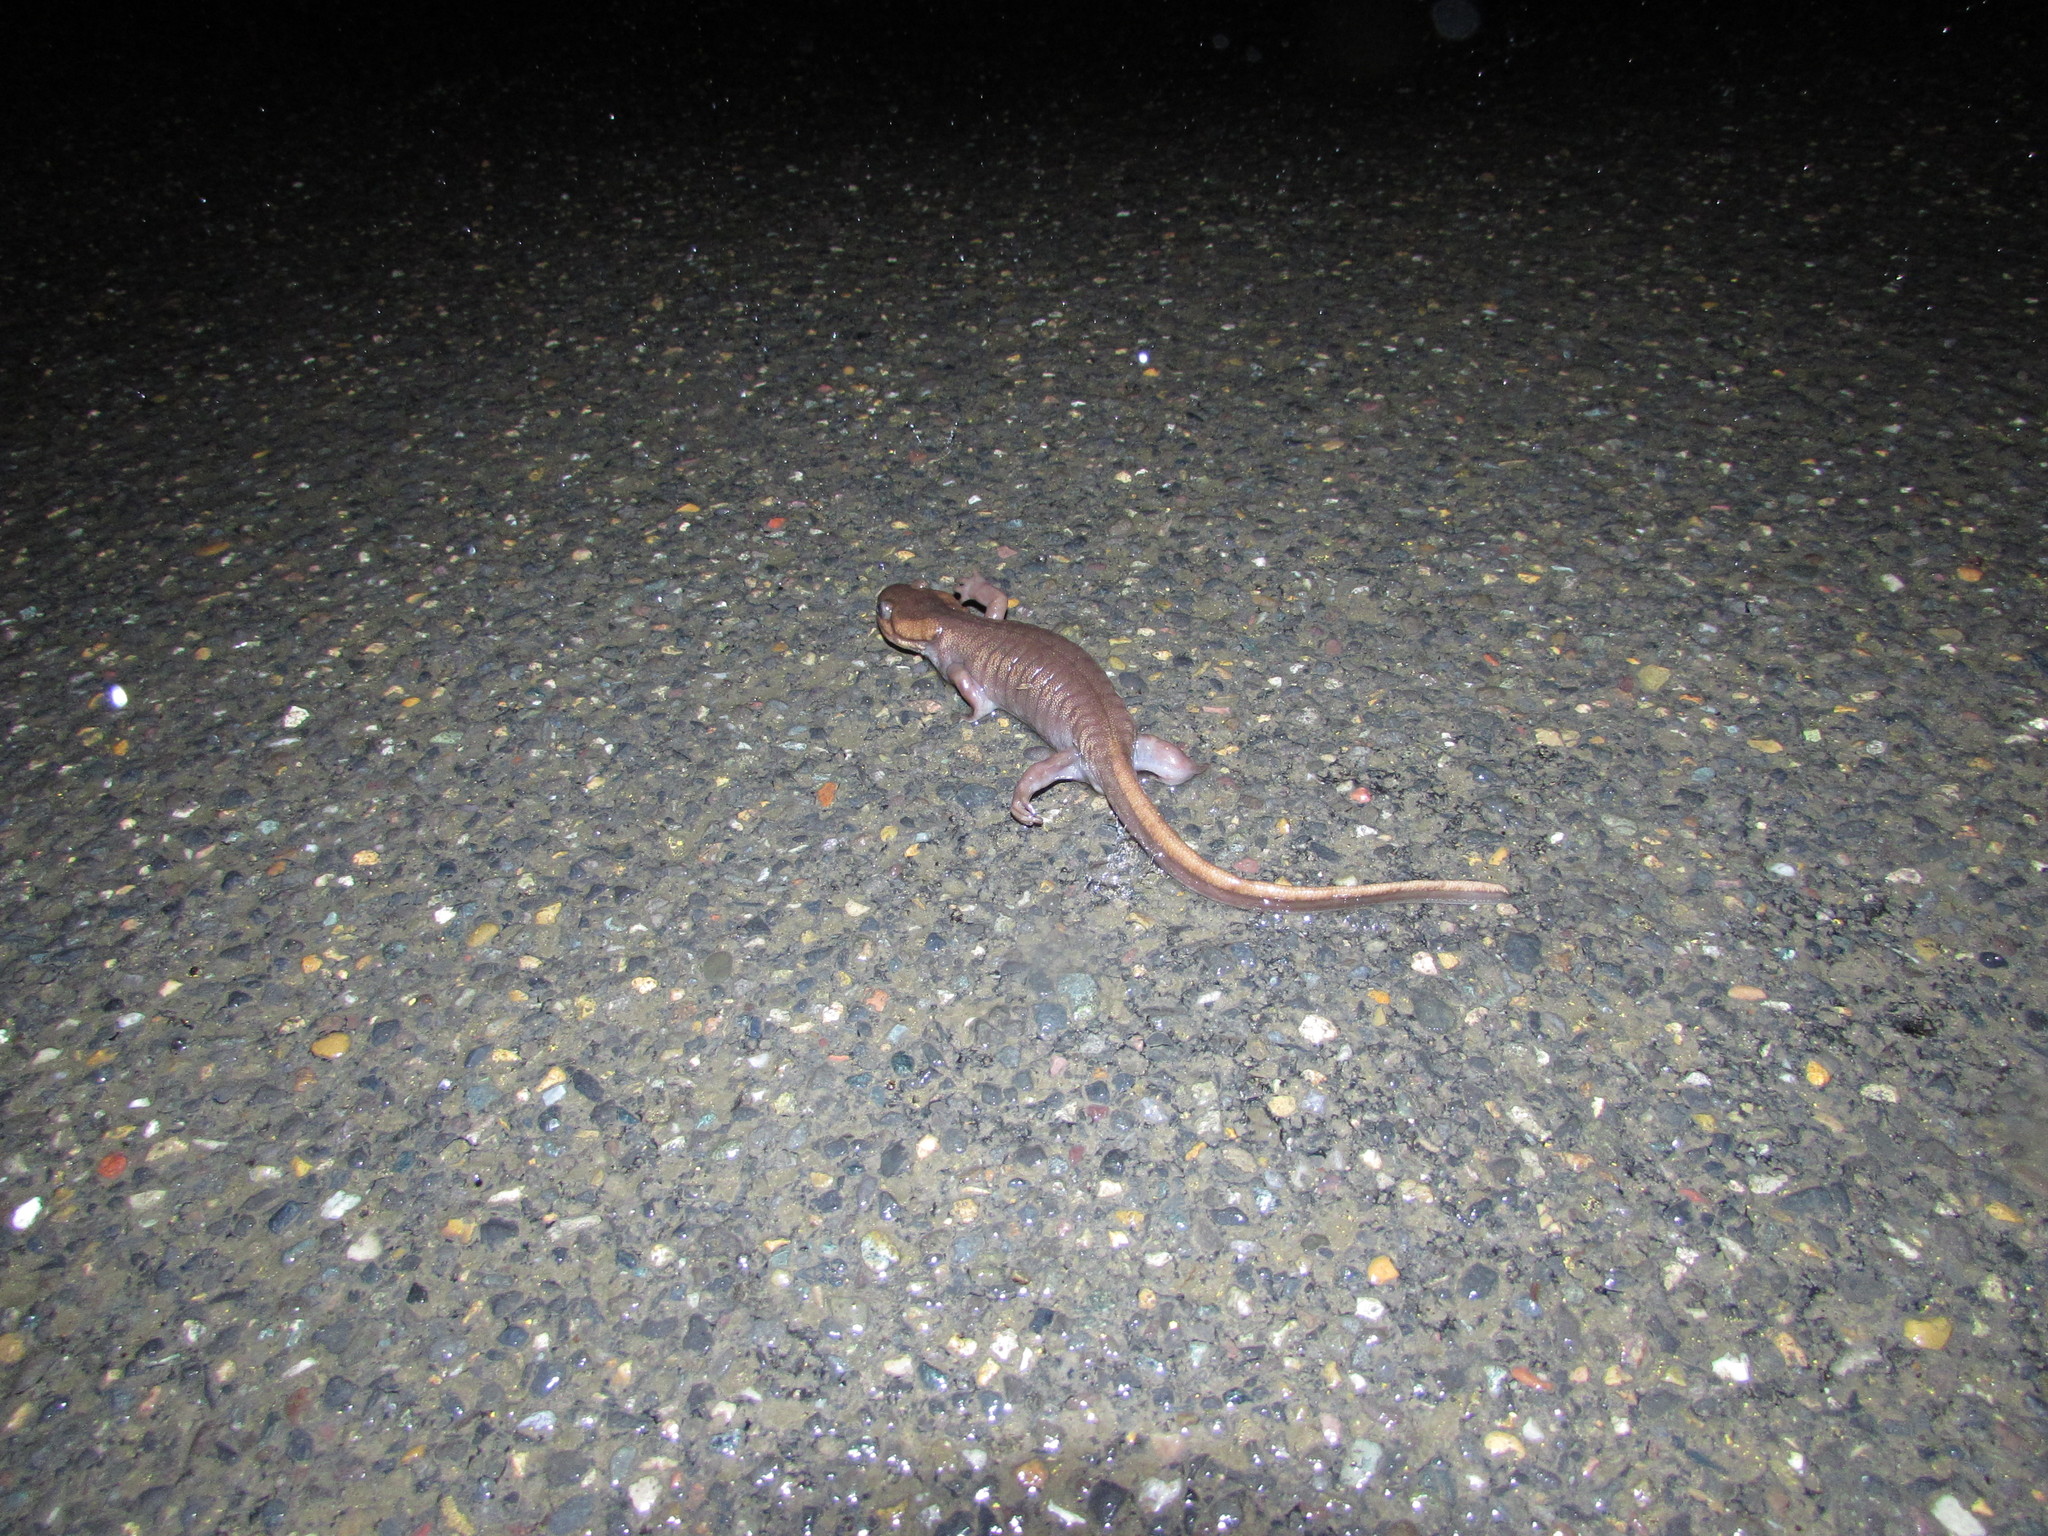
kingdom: Animalia
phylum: Chordata
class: Amphibia
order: Caudata
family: Ambystomatidae
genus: Ambystoma
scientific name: Ambystoma gracile
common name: Northwestern salamander
